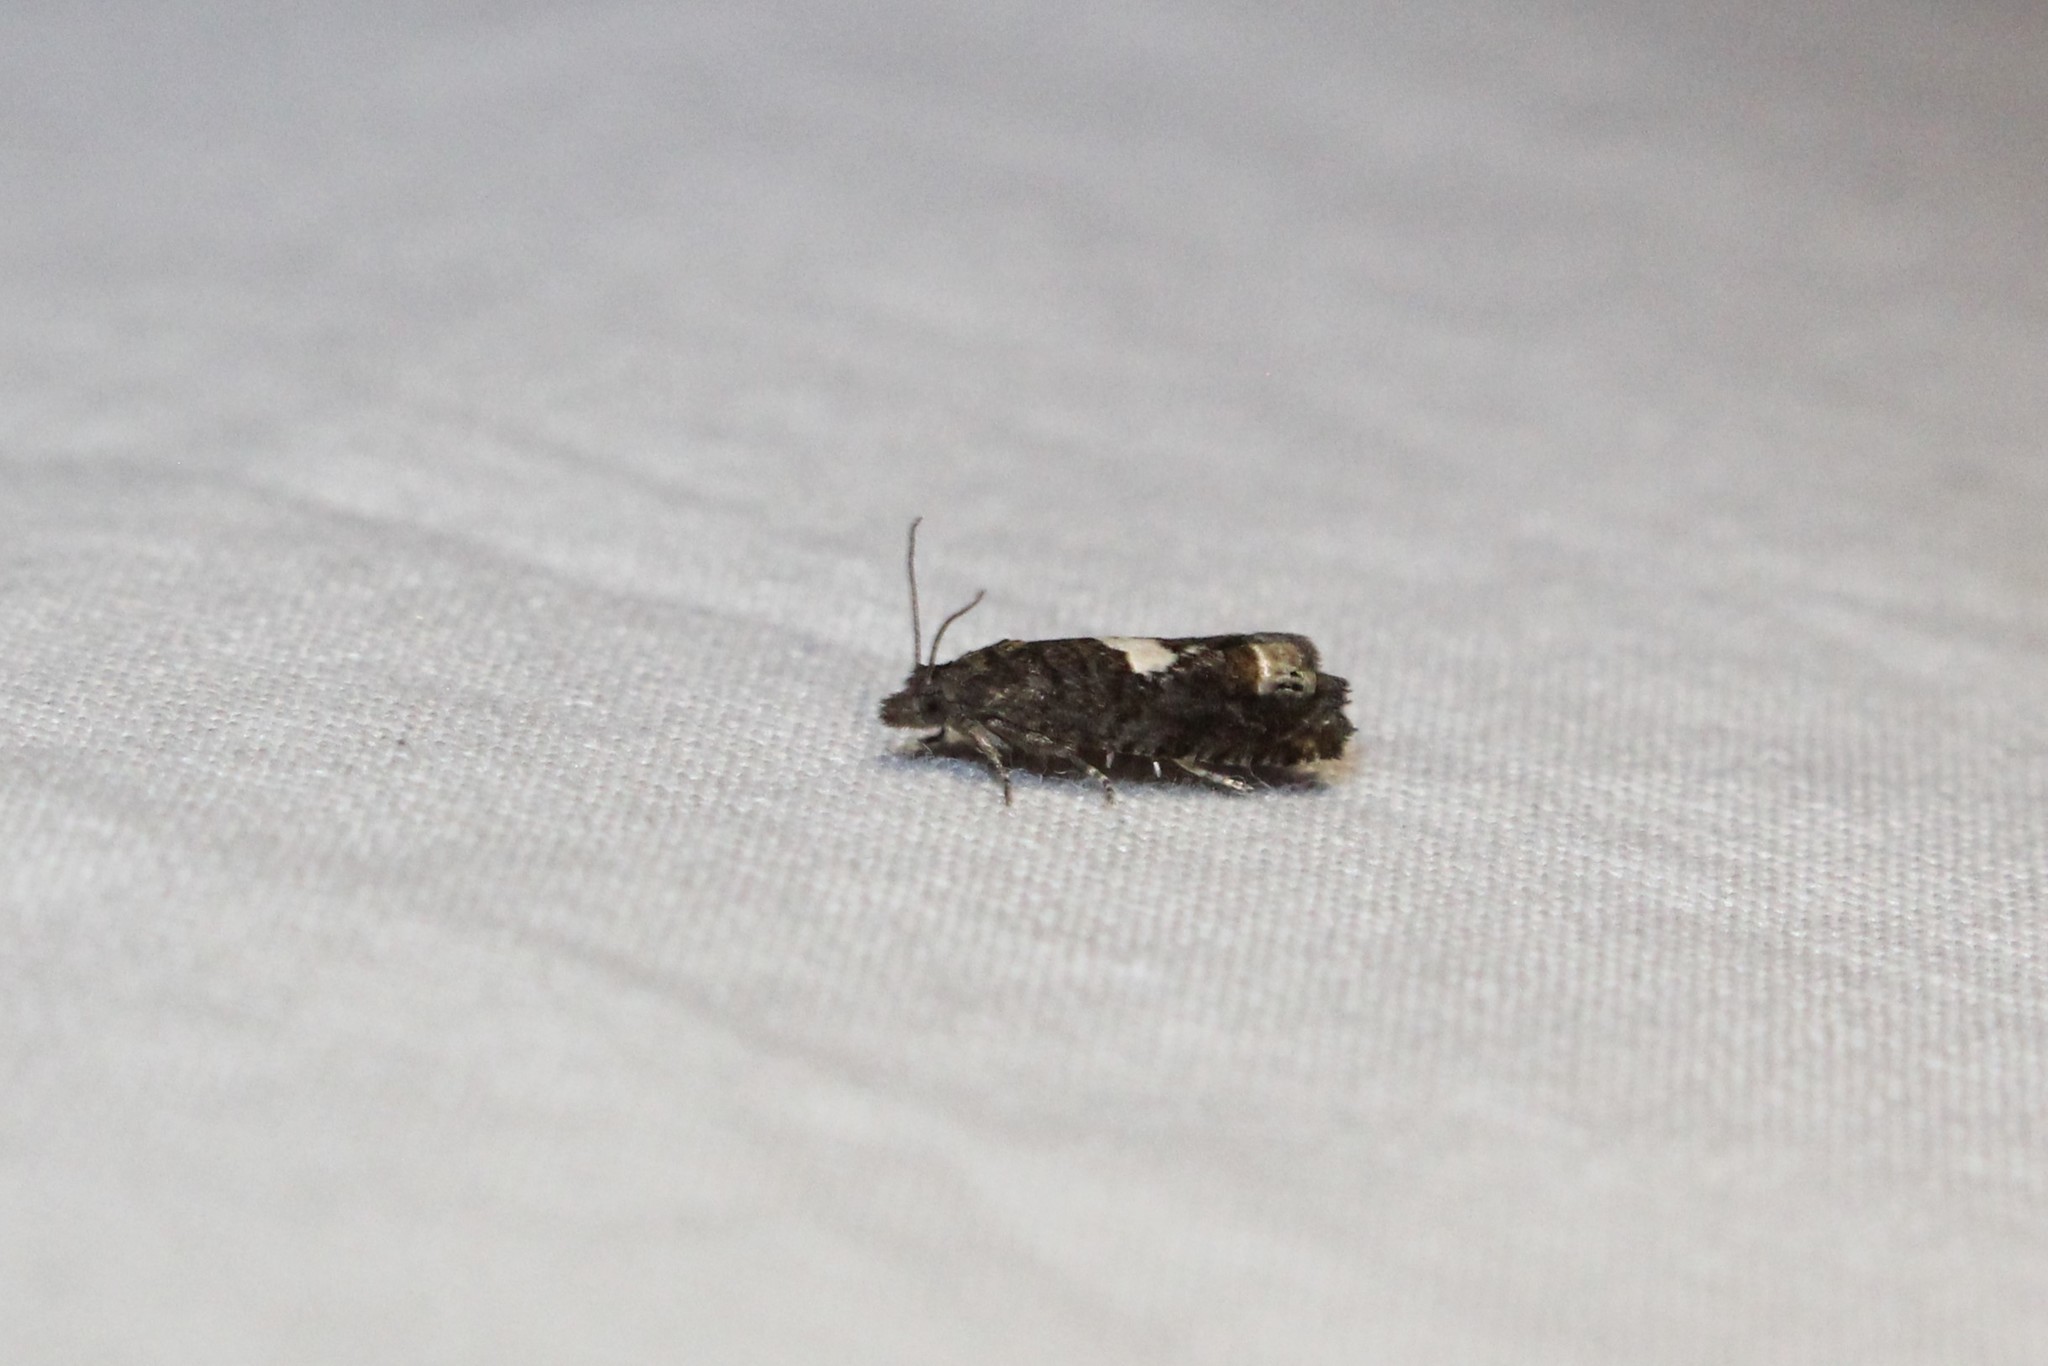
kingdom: Animalia
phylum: Arthropoda
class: Insecta
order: Lepidoptera
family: Tortricidae
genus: Eucosma
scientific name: Eucosma parmatana
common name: Aster eucosma moth
